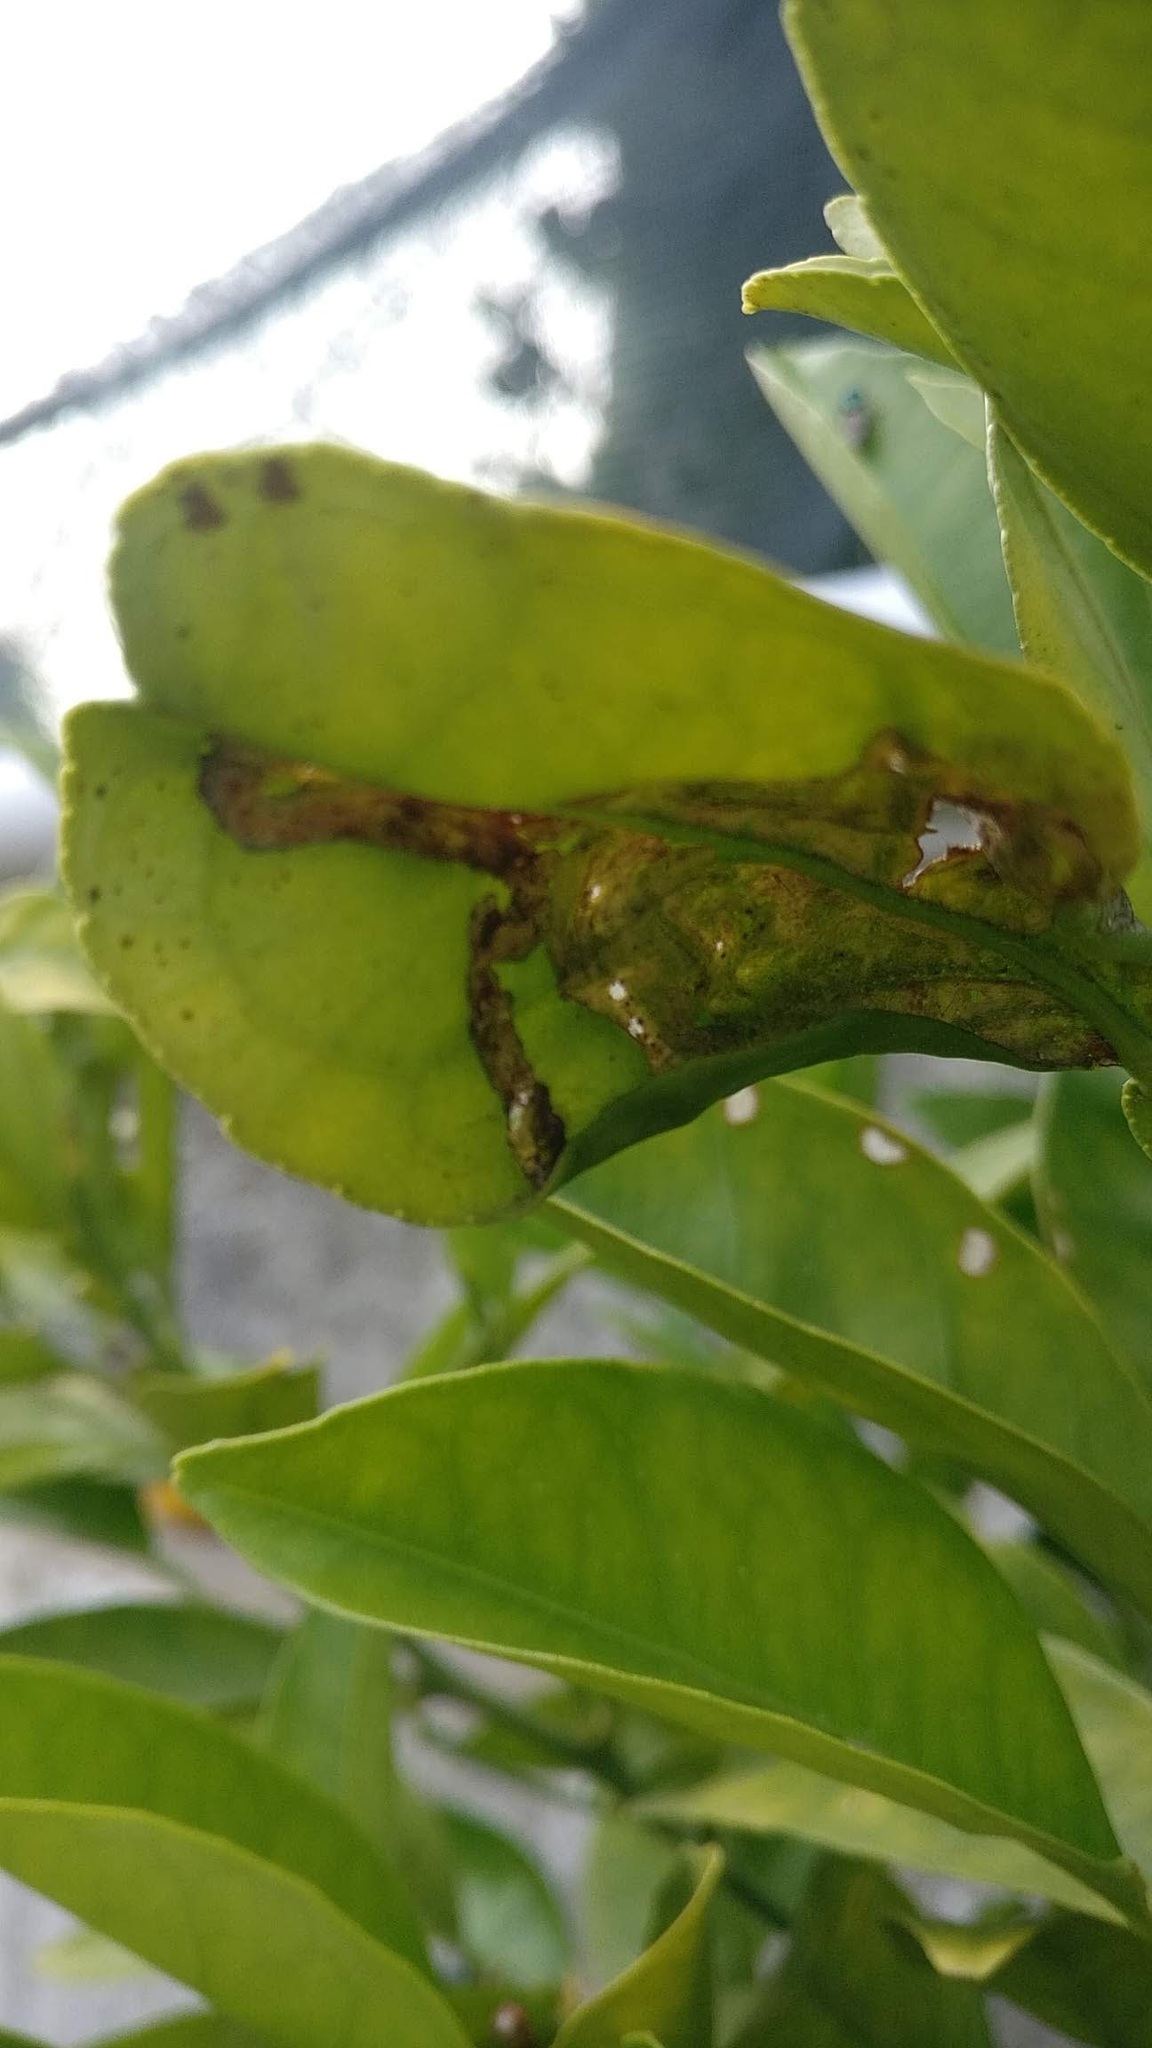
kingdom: Animalia
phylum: Arthropoda
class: Insecta
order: Lepidoptera
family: Gracillariidae
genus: Phyllocnistis
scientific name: Phyllocnistis citrella
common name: Citrus leafminer
